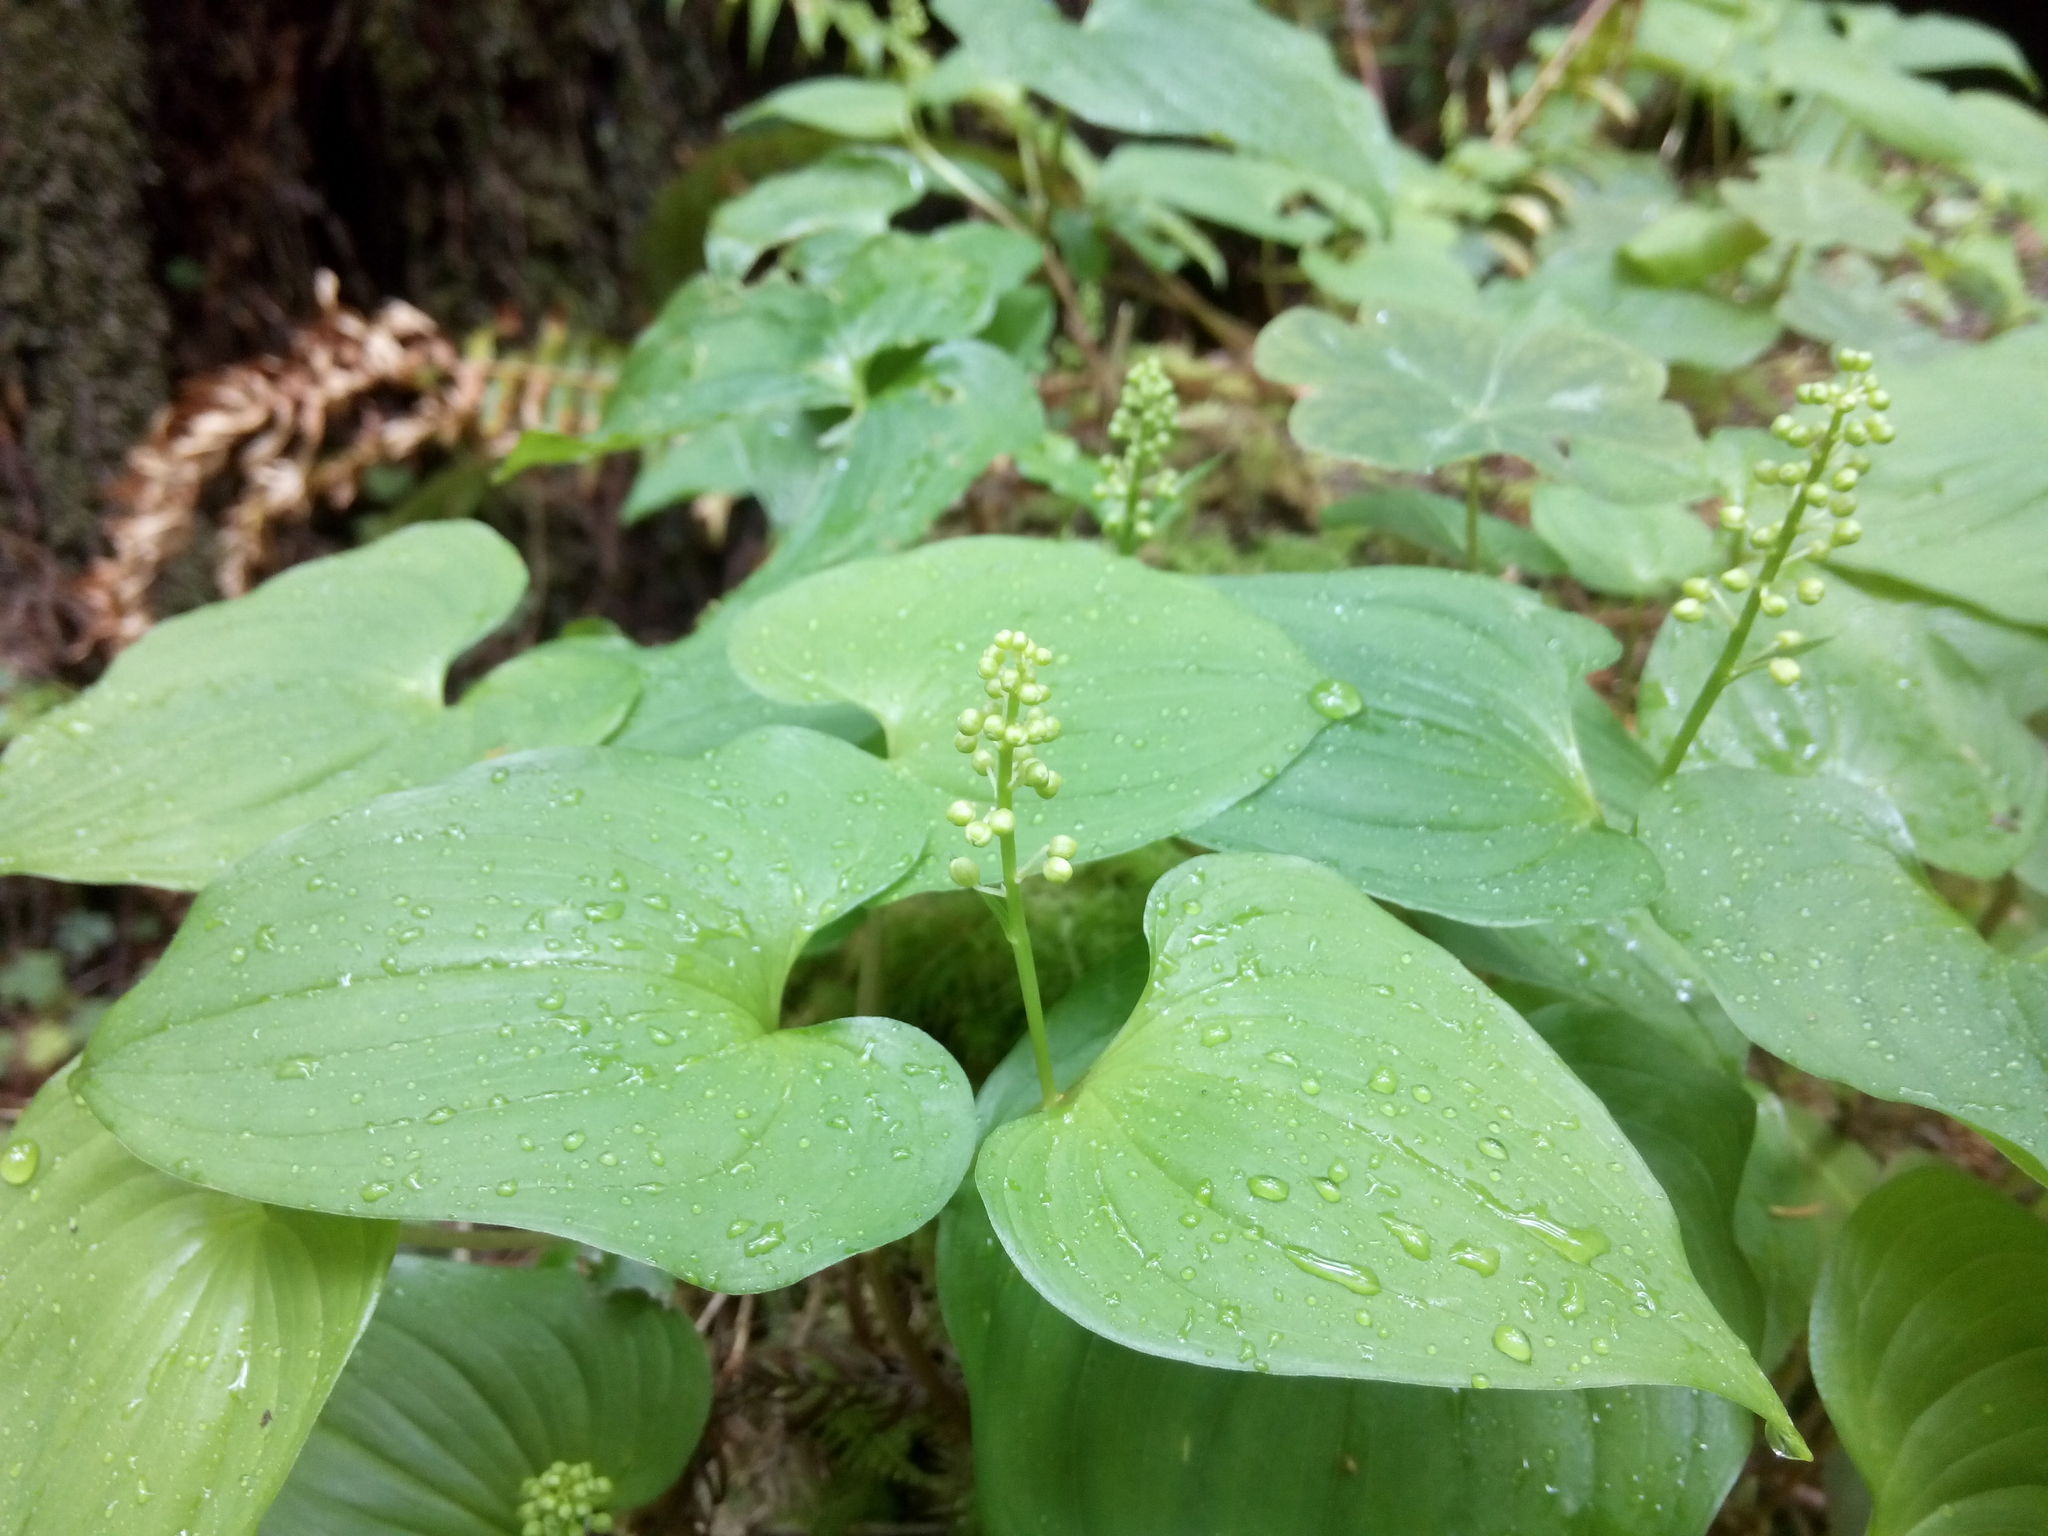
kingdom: Plantae
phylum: Tracheophyta
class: Liliopsida
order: Asparagales
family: Asparagaceae
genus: Maianthemum
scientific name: Maianthemum dilatatum
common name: False lily-of-the-valley
